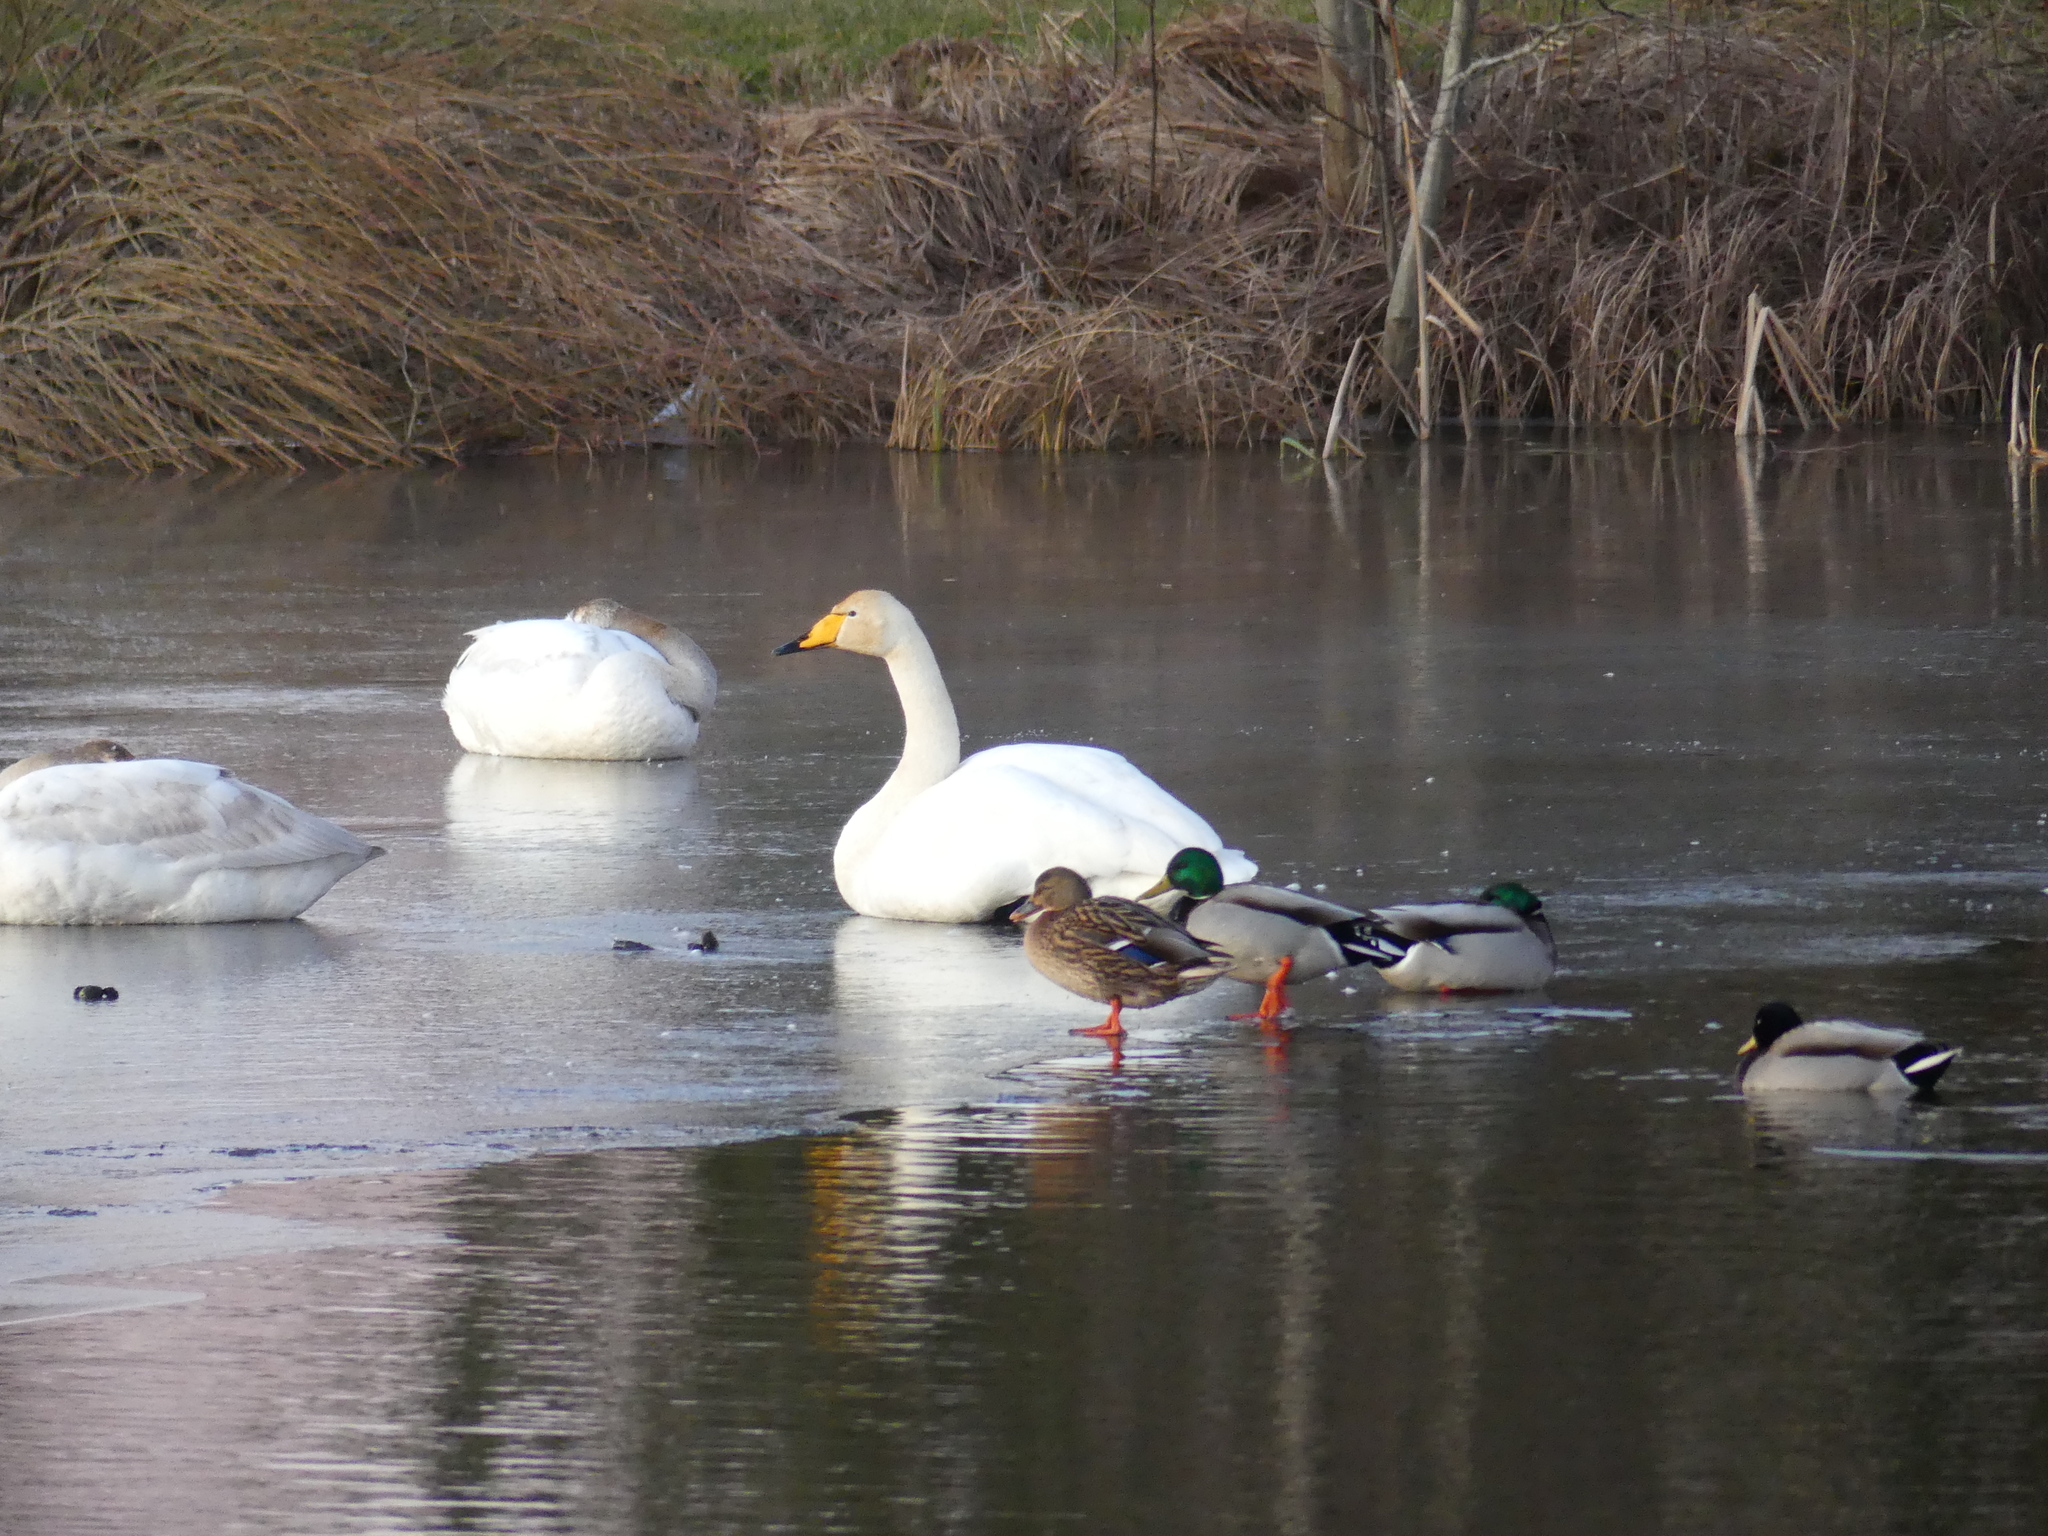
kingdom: Animalia
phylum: Chordata
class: Aves
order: Anseriformes
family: Anatidae
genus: Anas
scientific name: Anas platyrhynchos
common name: Mallard
